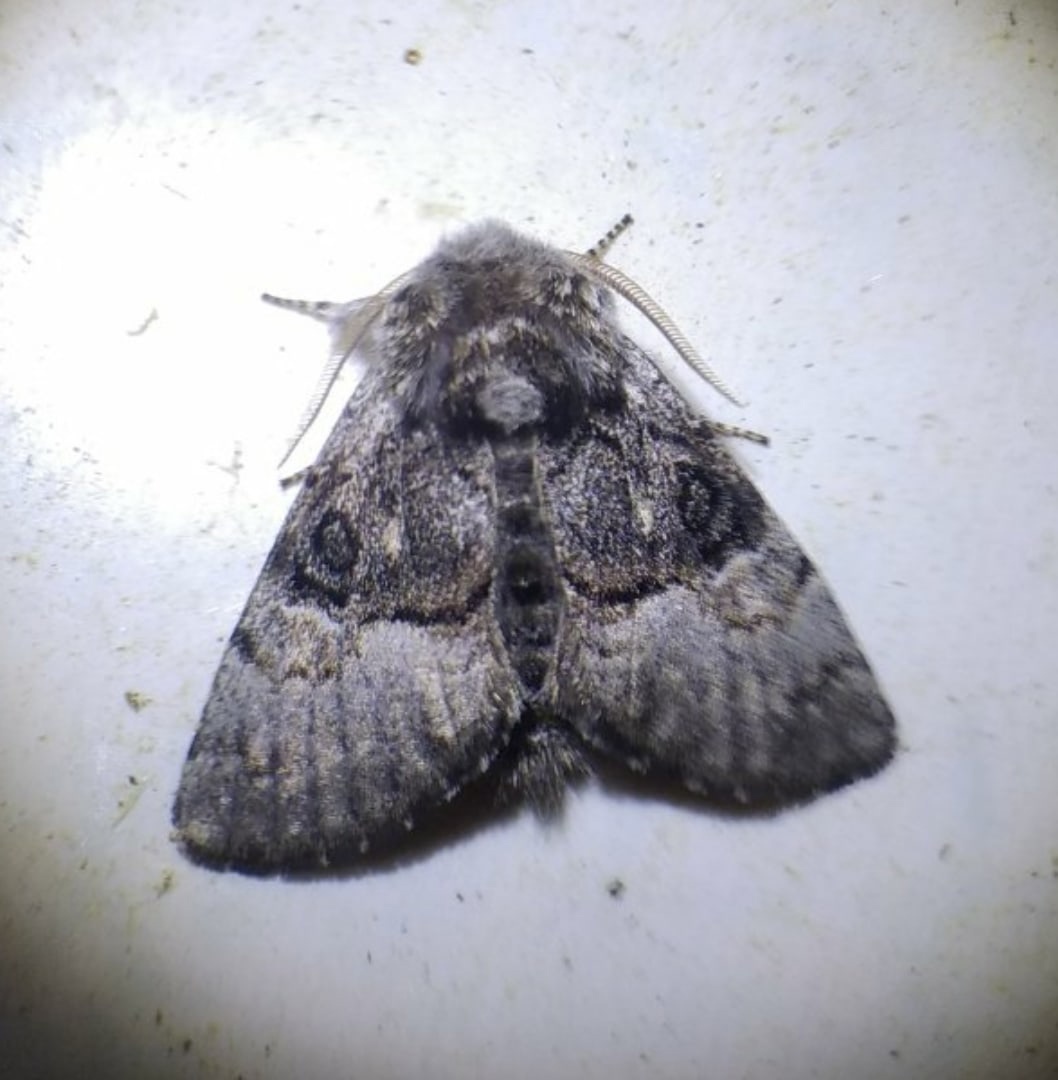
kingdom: Animalia
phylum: Arthropoda
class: Insecta
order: Lepidoptera
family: Noctuidae
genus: Colocasia
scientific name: Colocasia coryli
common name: Nut-tree tussock
